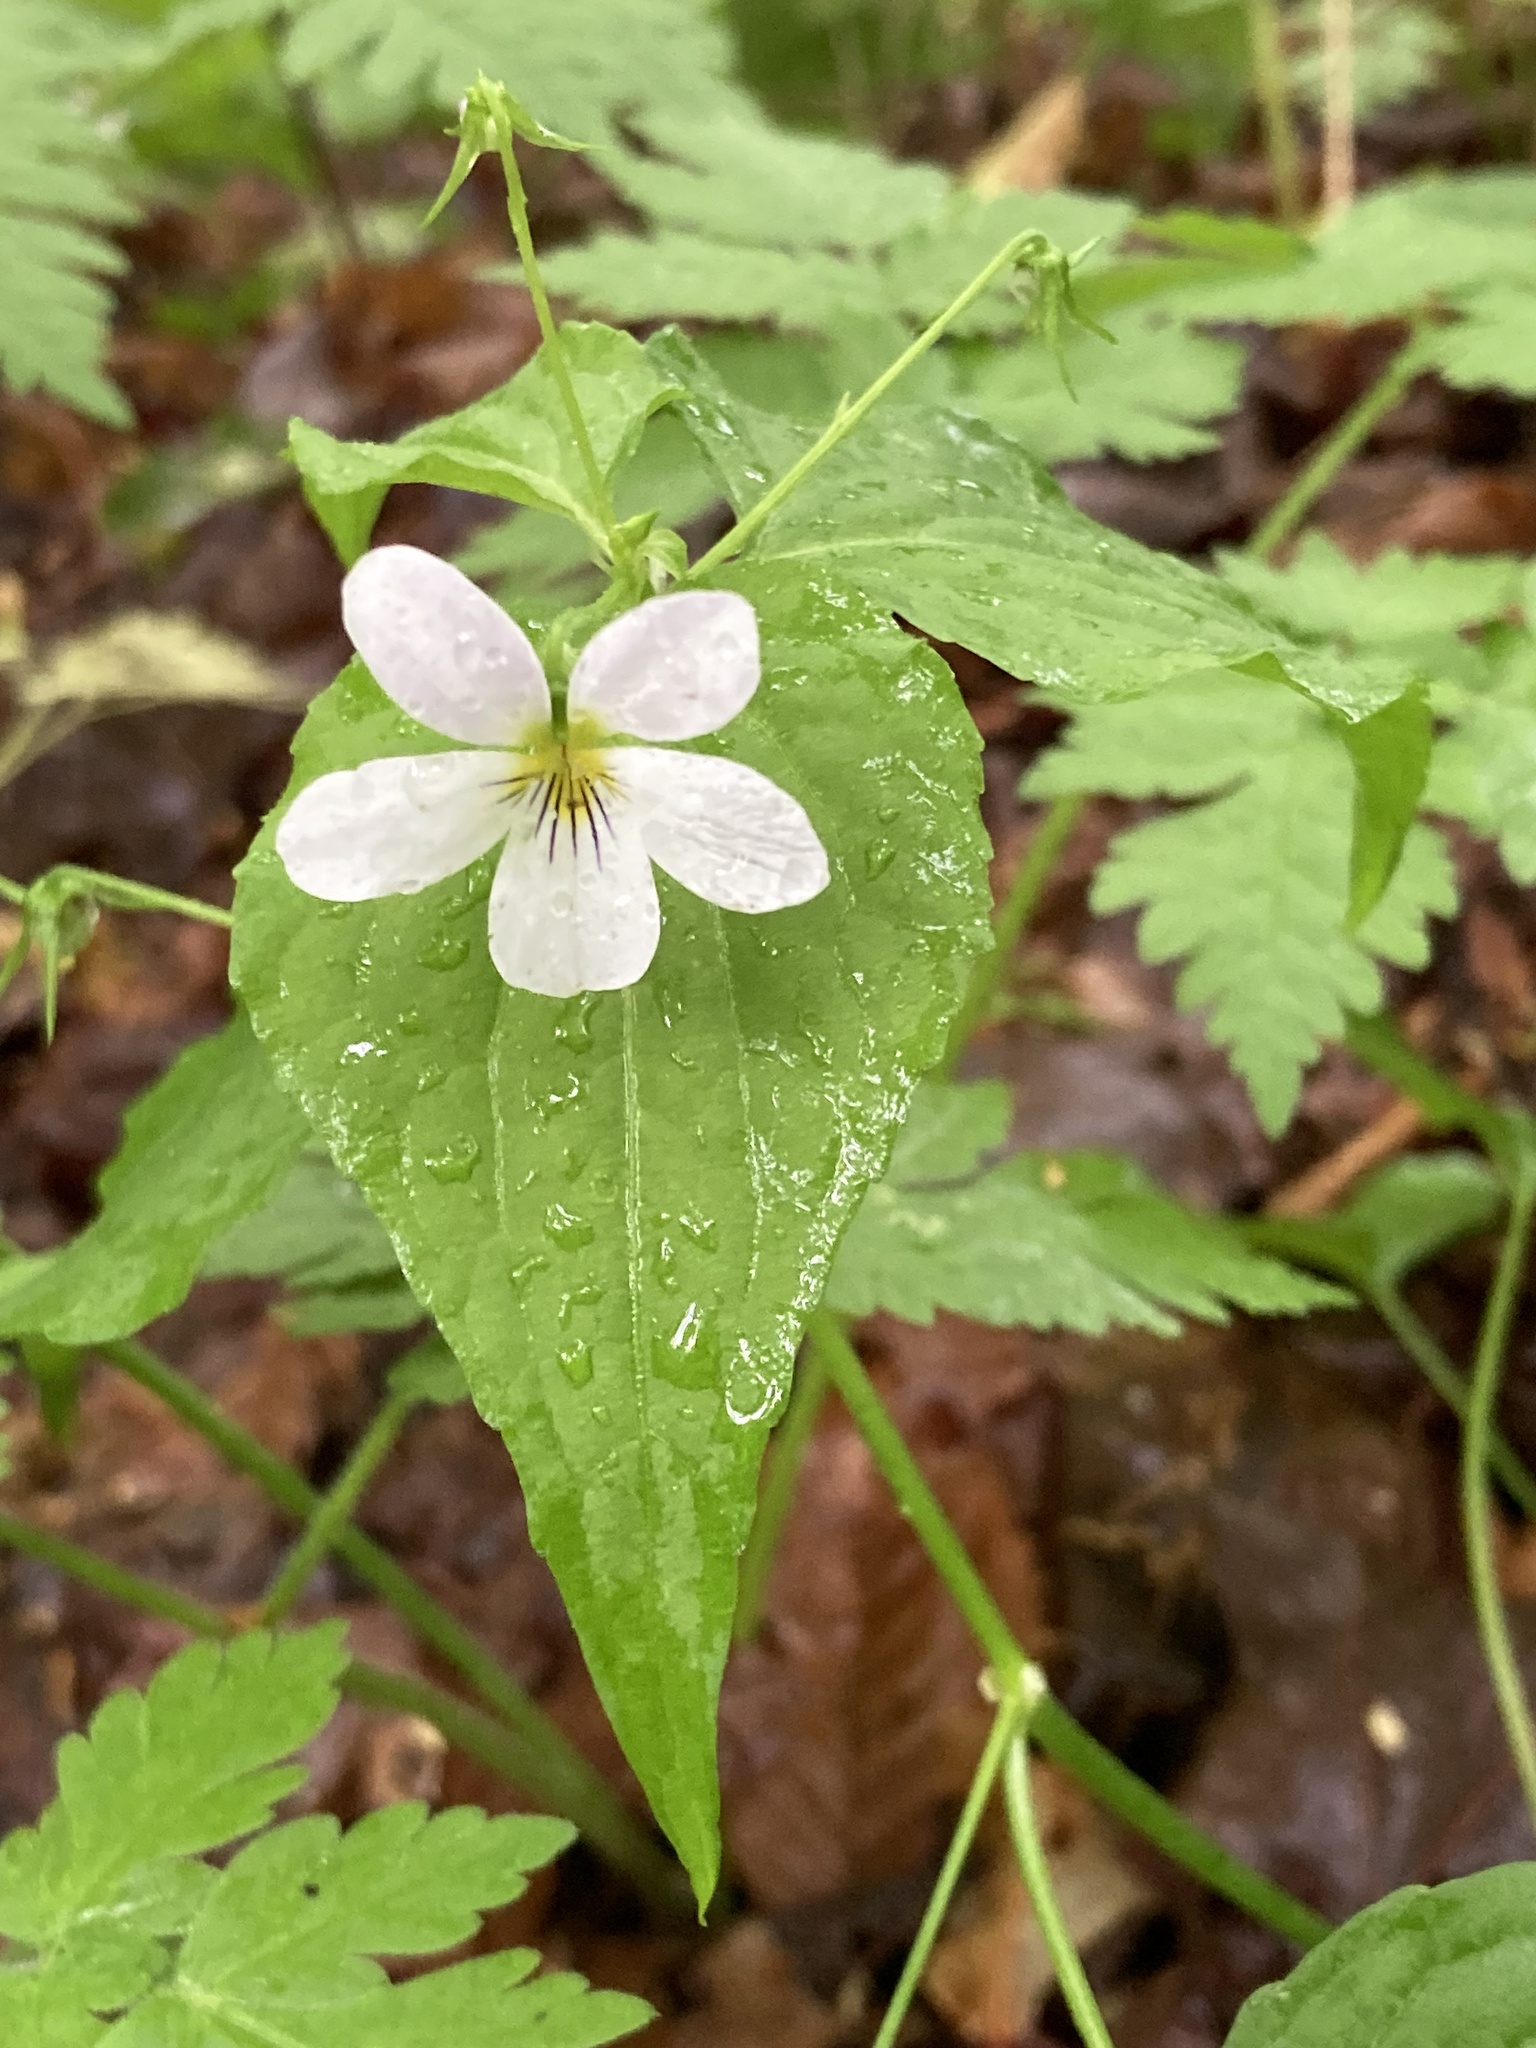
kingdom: Plantae
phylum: Tracheophyta
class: Magnoliopsida
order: Malpighiales
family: Violaceae
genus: Viola
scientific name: Viola canadensis
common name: Canada violet
